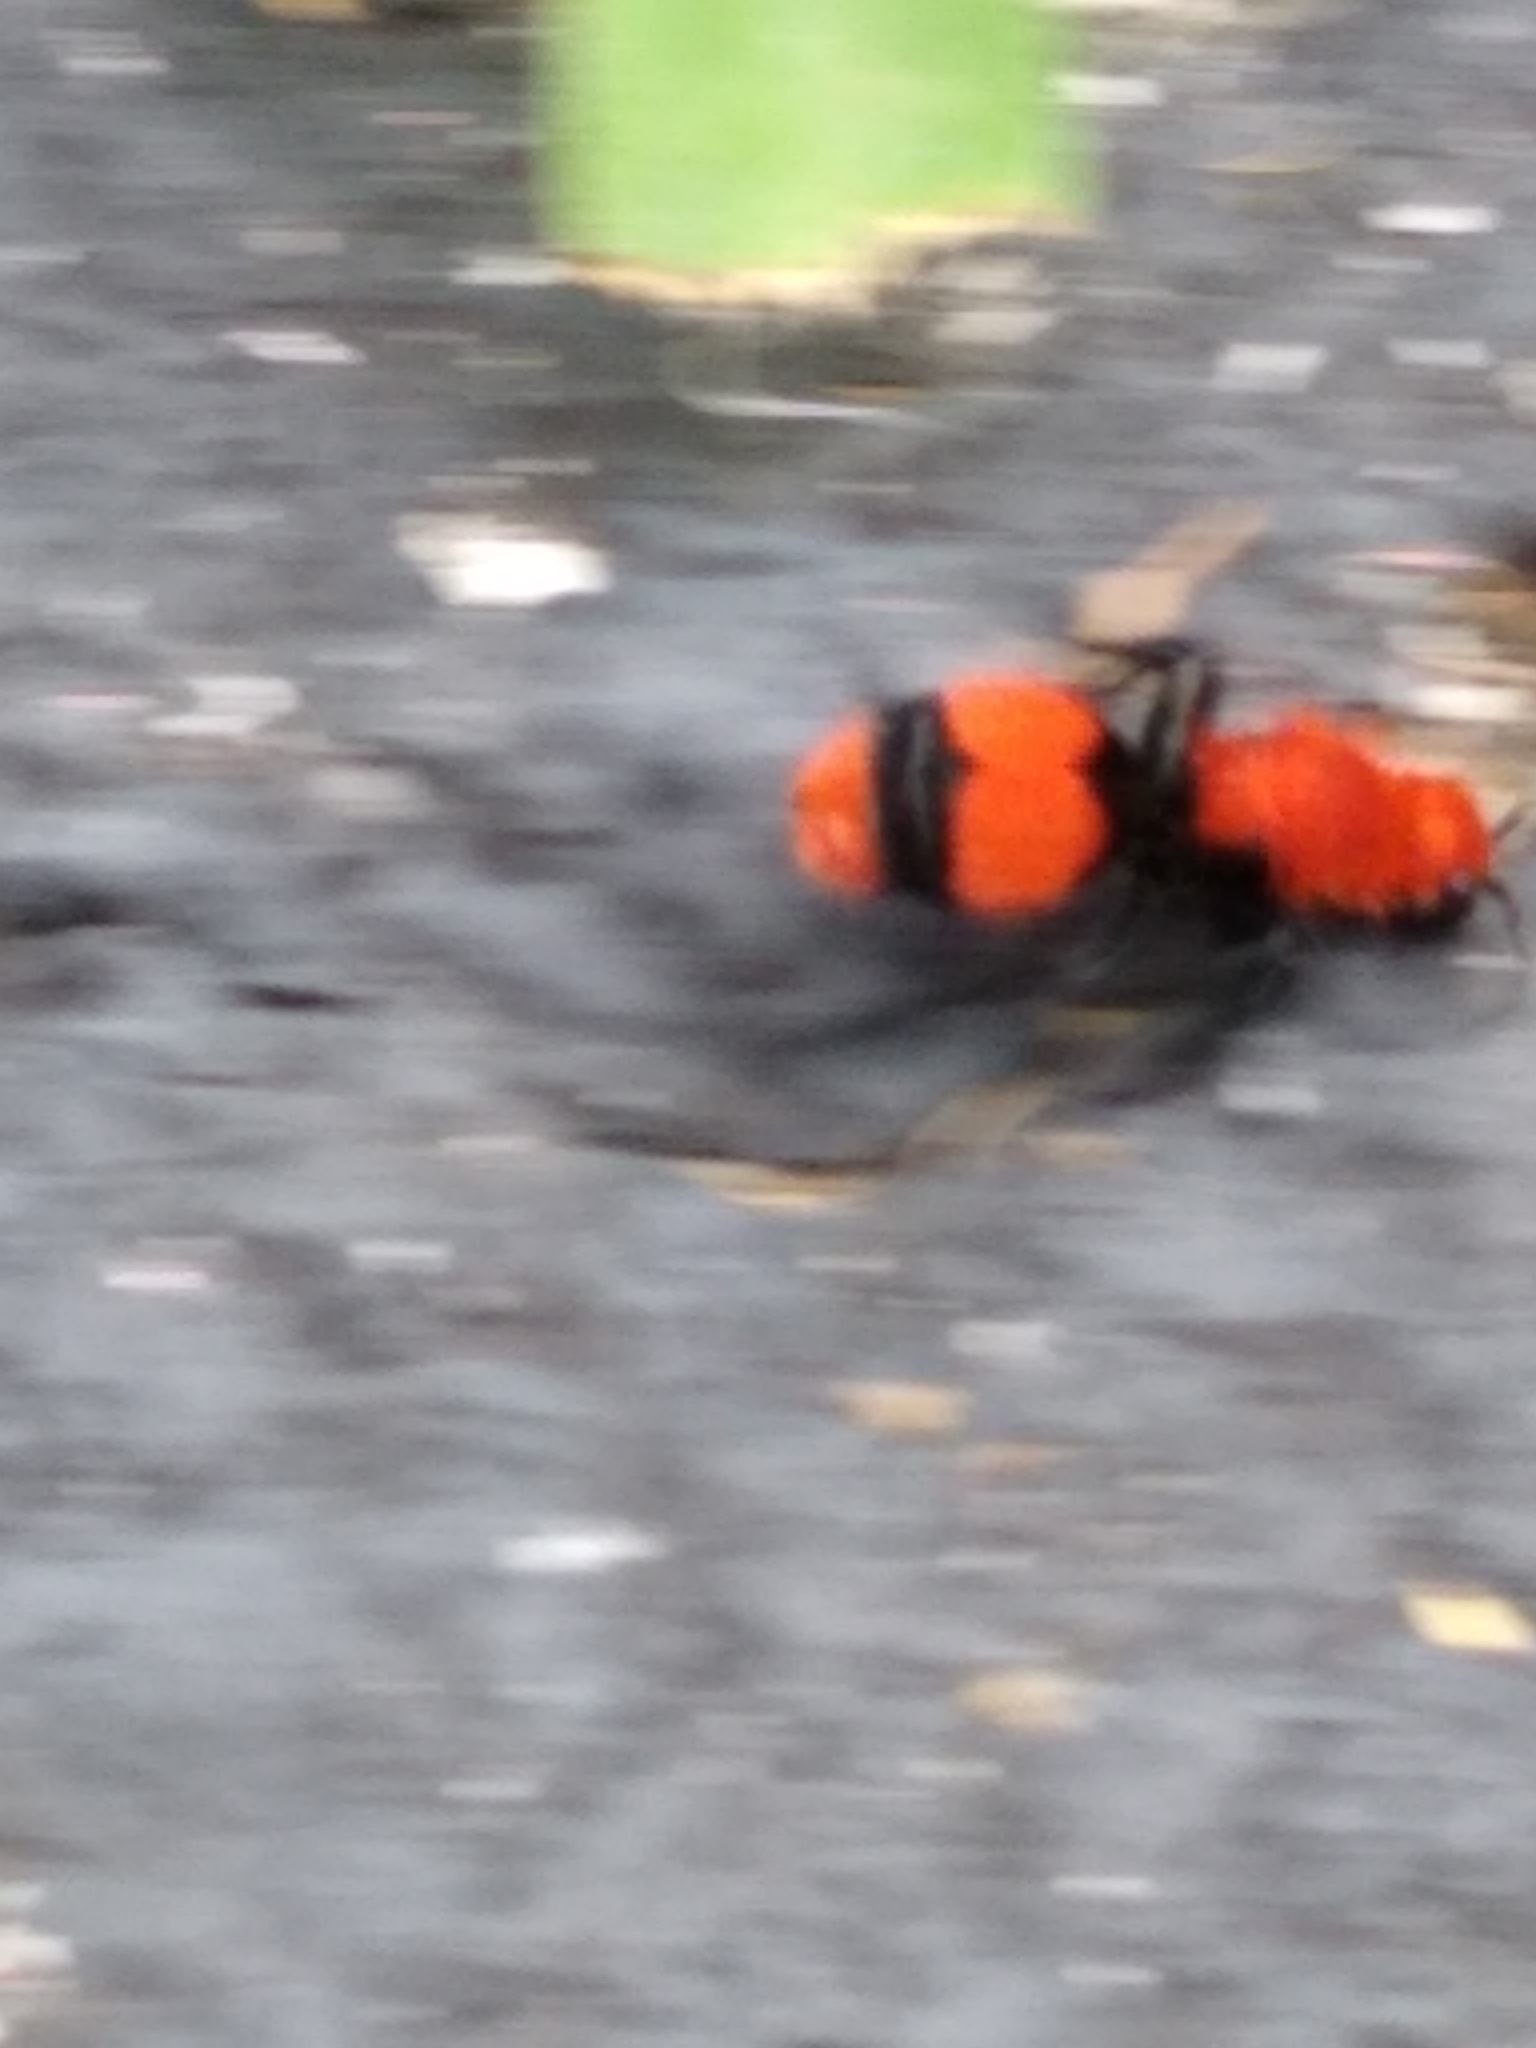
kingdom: Animalia
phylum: Arthropoda
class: Insecta
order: Hymenoptera
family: Mutillidae
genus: Dasymutilla
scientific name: Dasymutilla occidentalis
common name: Common eastern velvet ant
